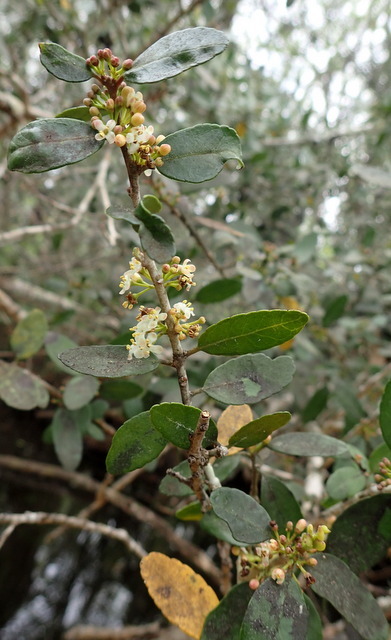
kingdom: Plantae
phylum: Tracheophyta
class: Magnoliopsida
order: Aquifoliales
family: Aquifoliaceae
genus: Ilex
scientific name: Ilex vomitoria
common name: Yaupon holly
